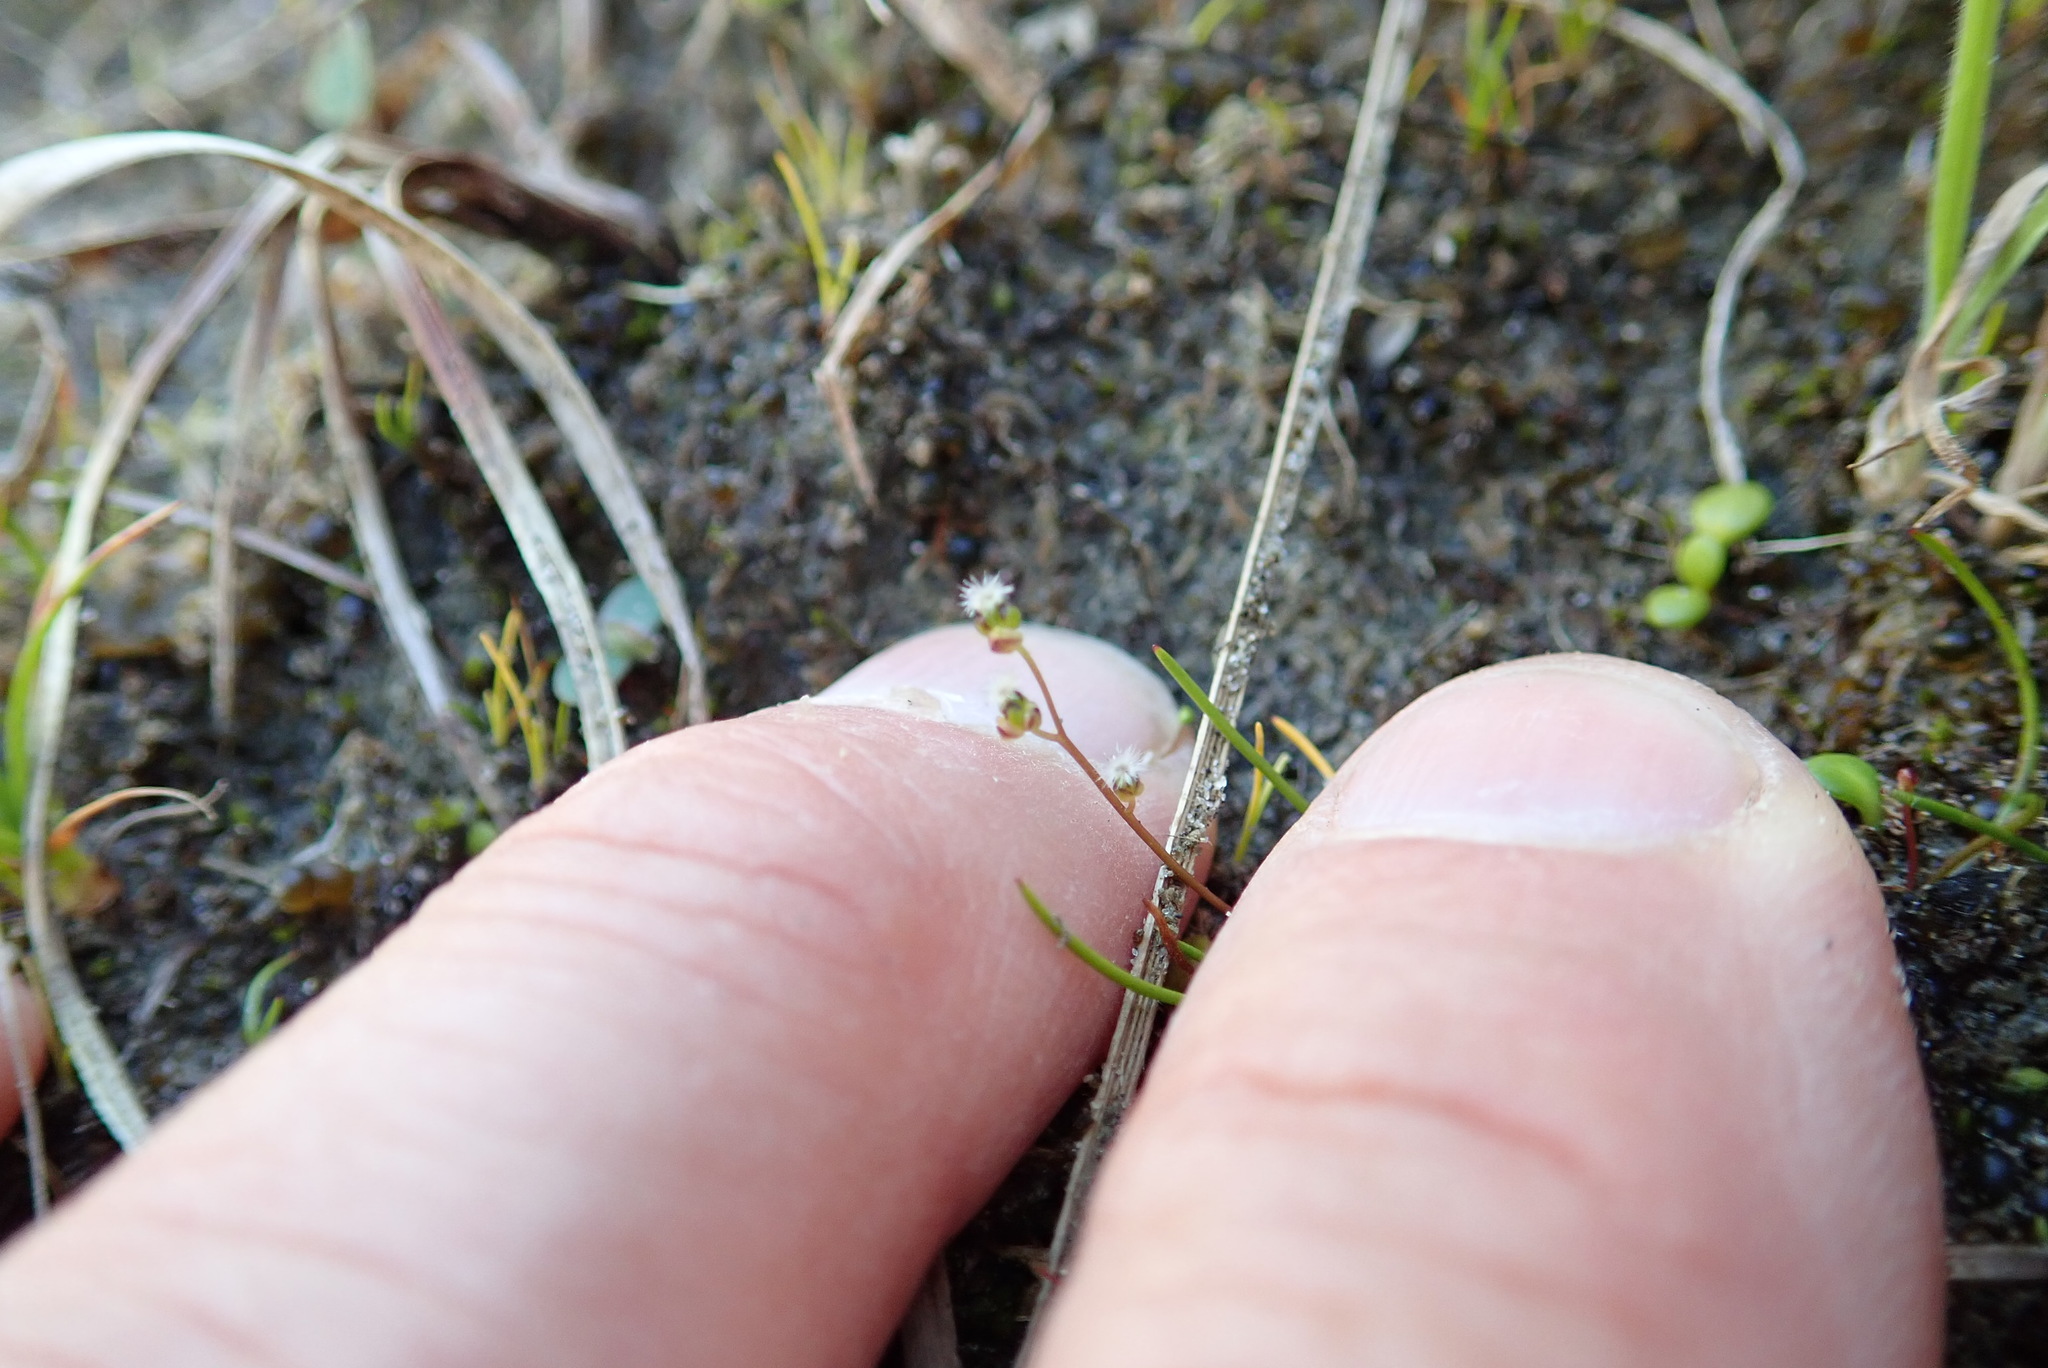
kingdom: Plantae
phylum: Tracheophyta
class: Liliopsida
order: Alismatales
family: Juncaginaceae
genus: Triglochin
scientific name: Triglochin striata
